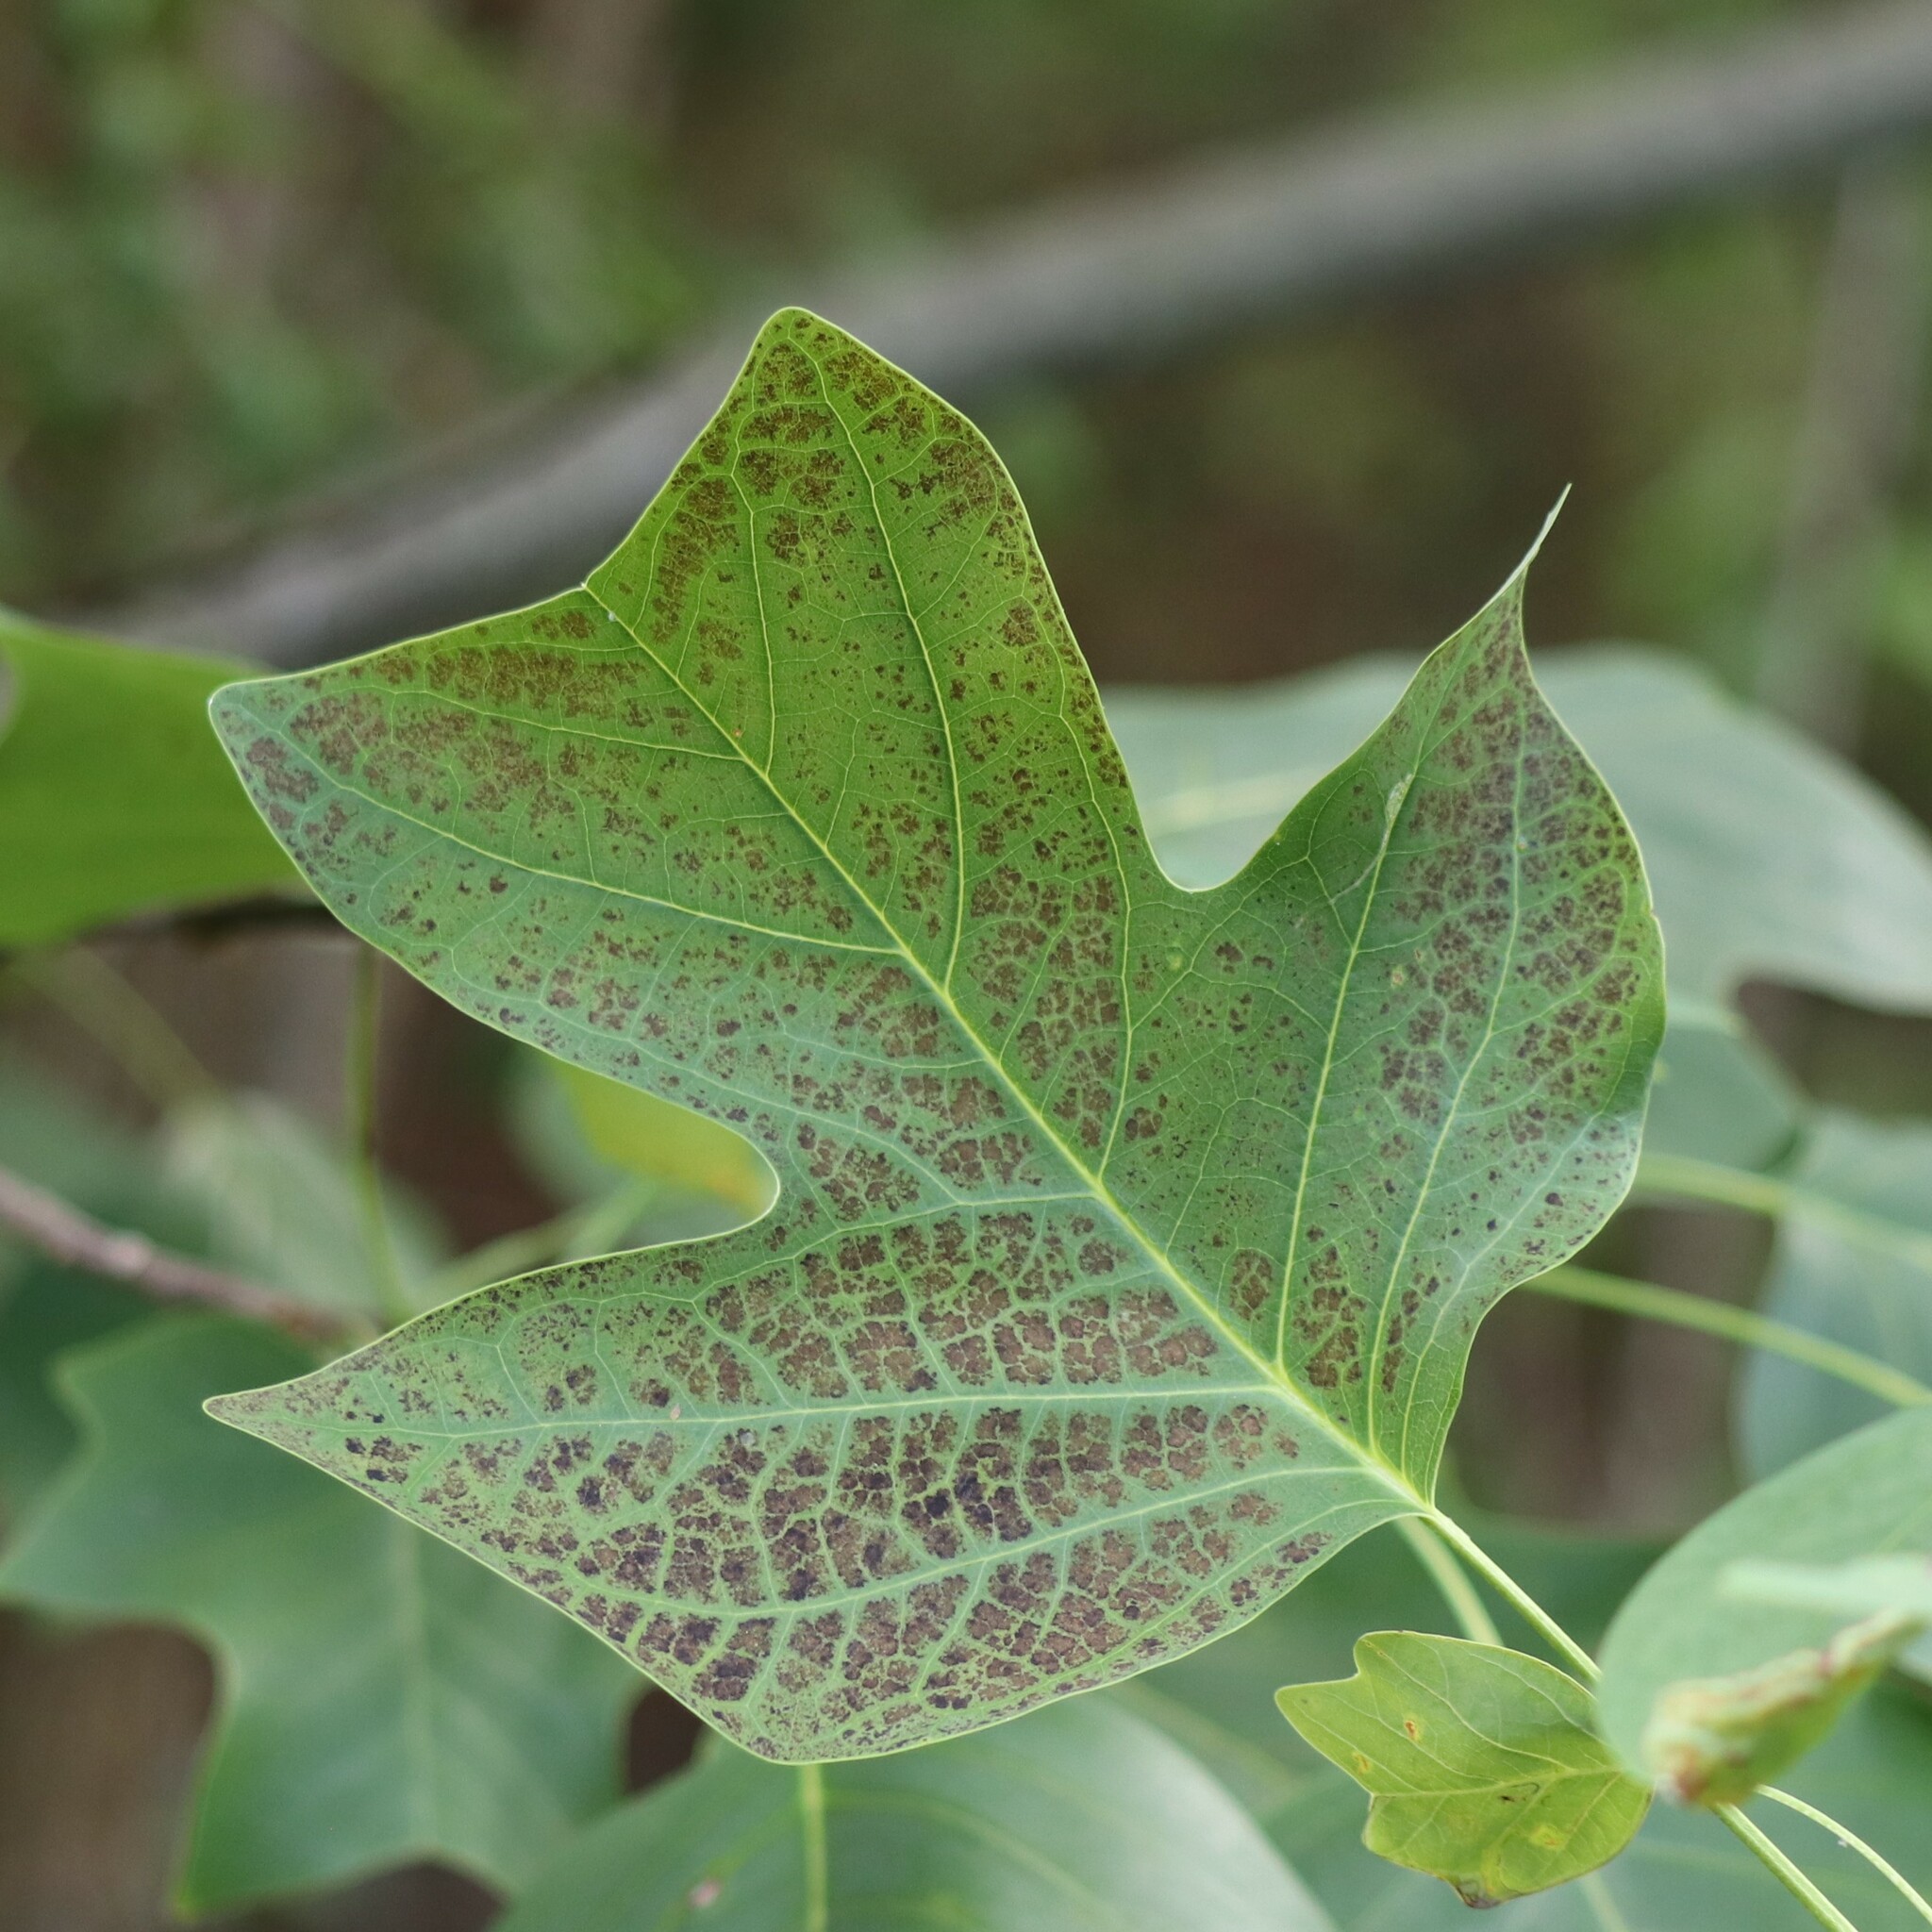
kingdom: Plantae
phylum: Tracheophyta
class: Magnoliopsida
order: Magnoliales
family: Magnoliaceae
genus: Liriodendron
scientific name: Liriodendron tulipifera
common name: Tulip tree
